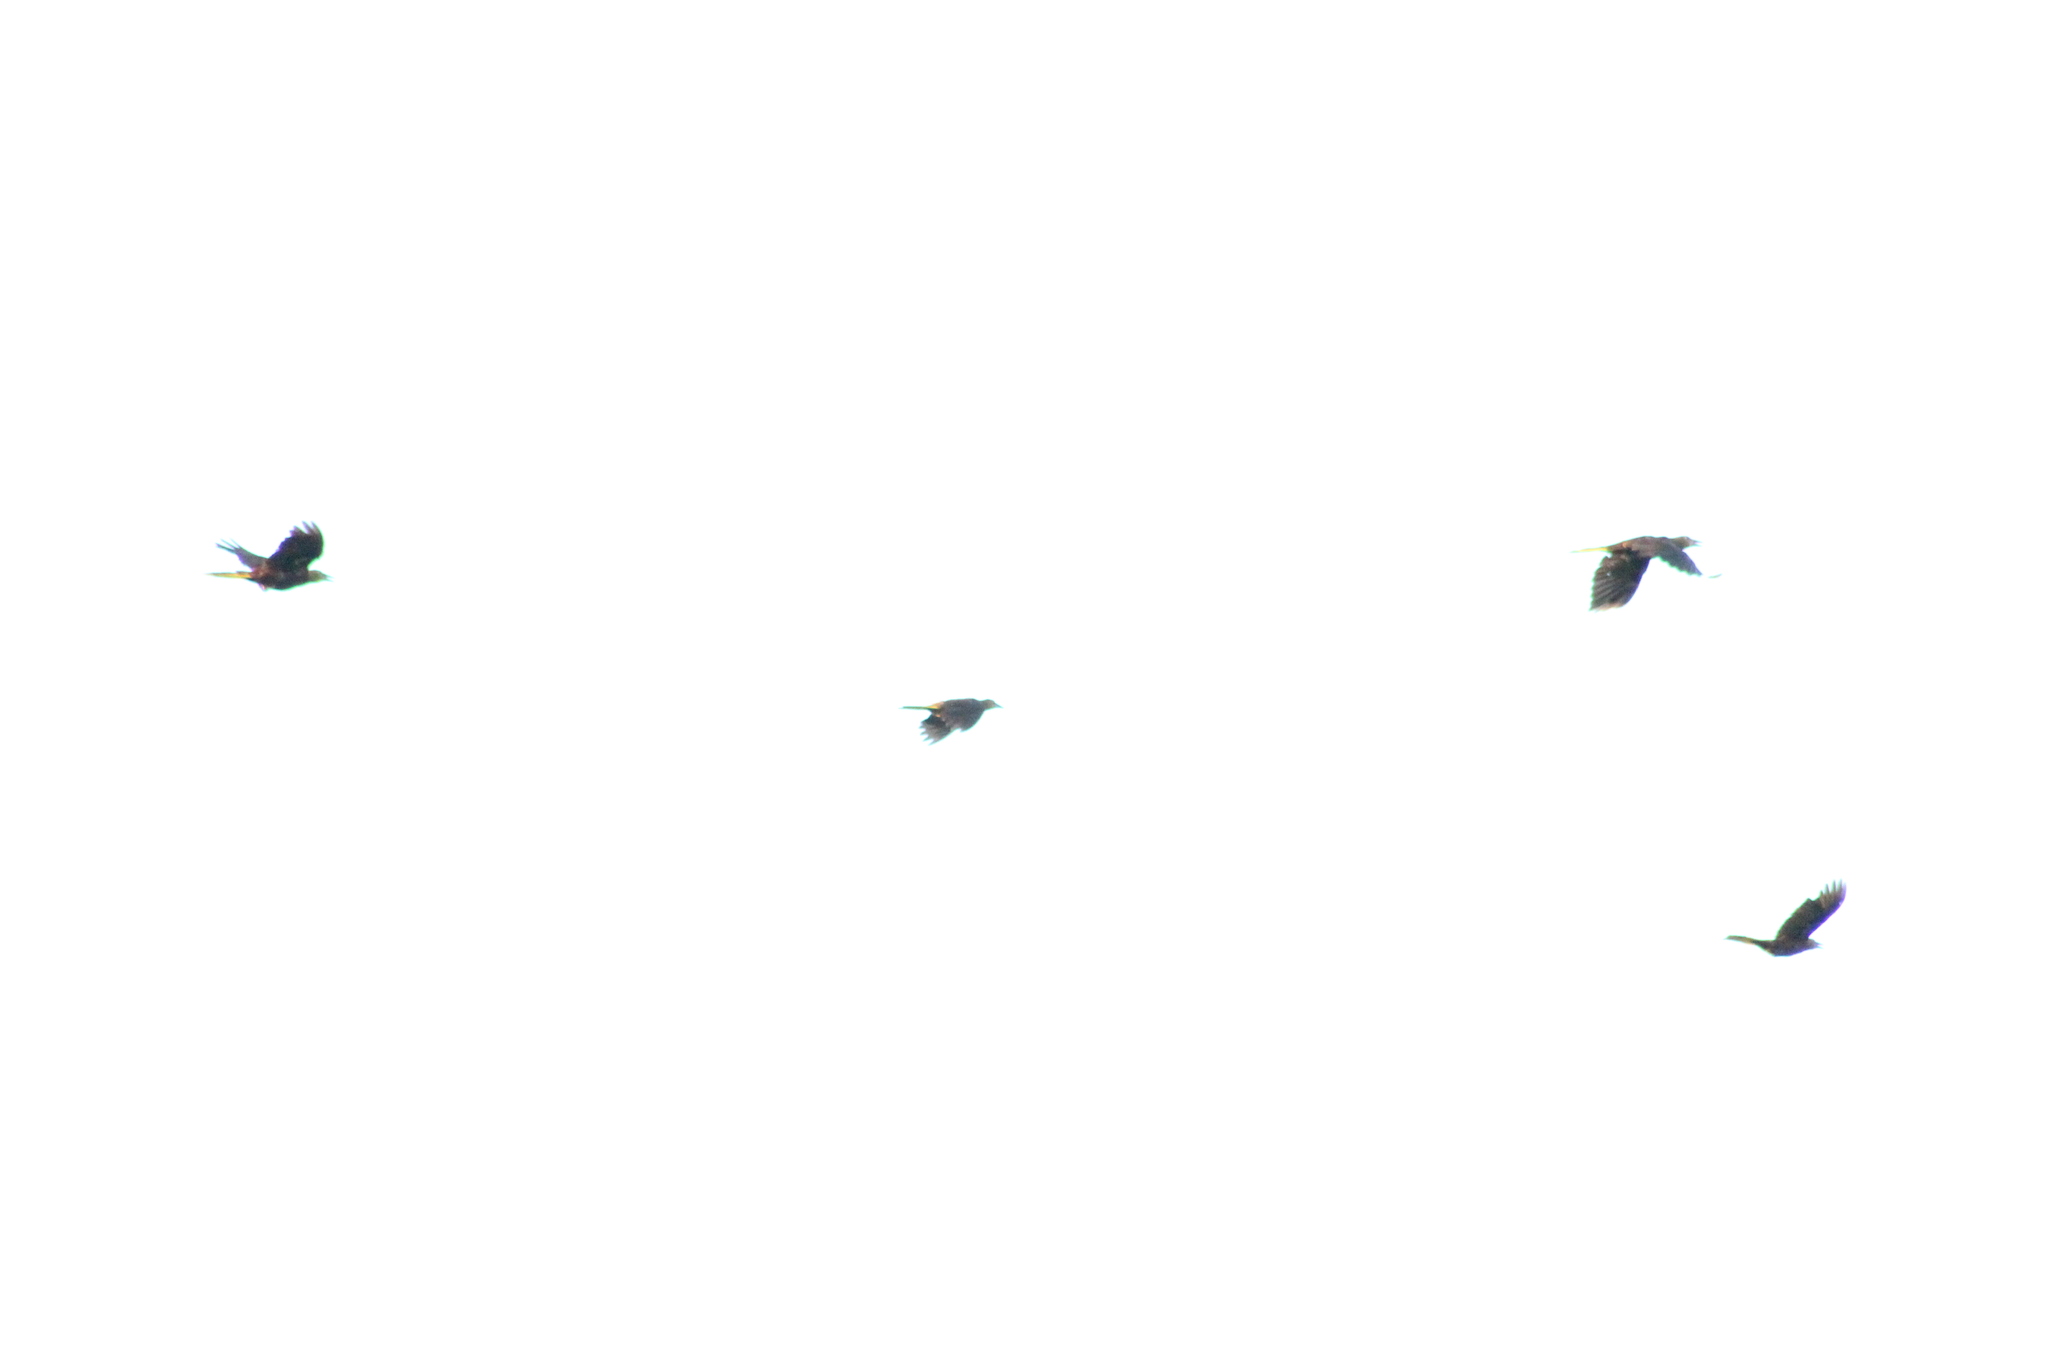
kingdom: Animalia
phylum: Chordata
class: Aves
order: Passeriformes
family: Icteridae
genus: Psarocolius
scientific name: Psarocolius angustifrons
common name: Russet-backed oropendola
